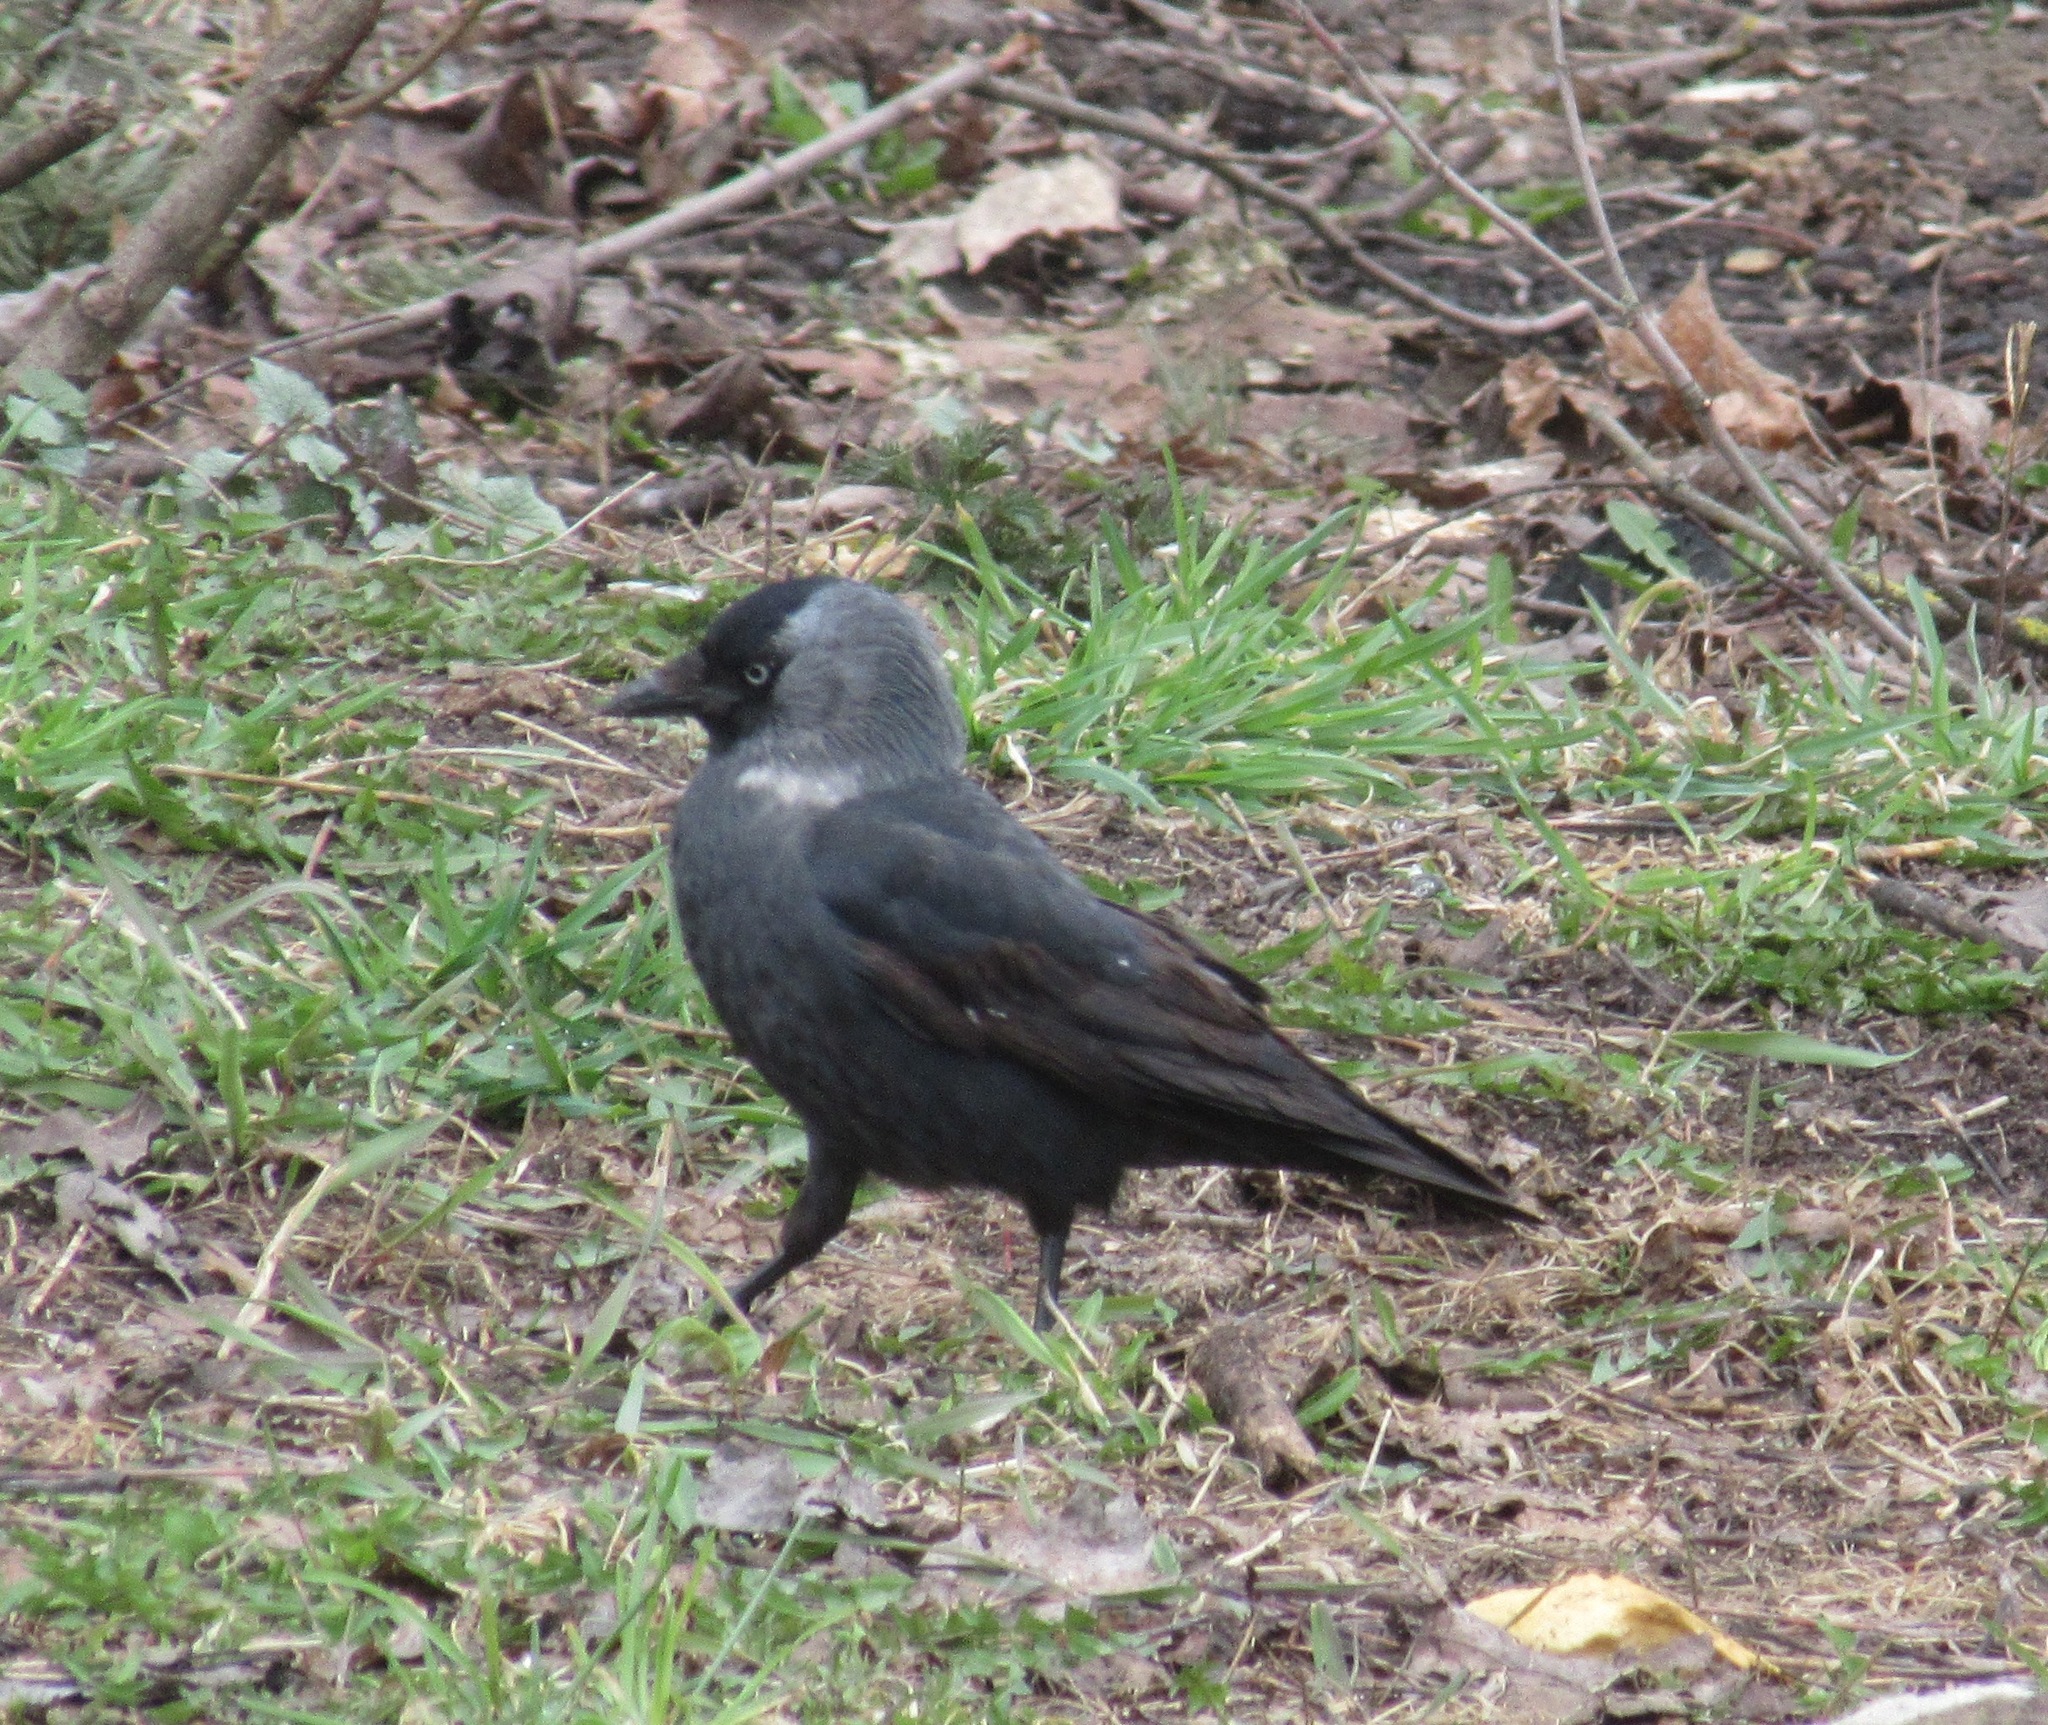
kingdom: Animalia
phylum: Chordata
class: Aves
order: Passeriformes
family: Corvidae
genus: Coloeus
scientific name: Coloeus monedula
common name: Western jackdaw
